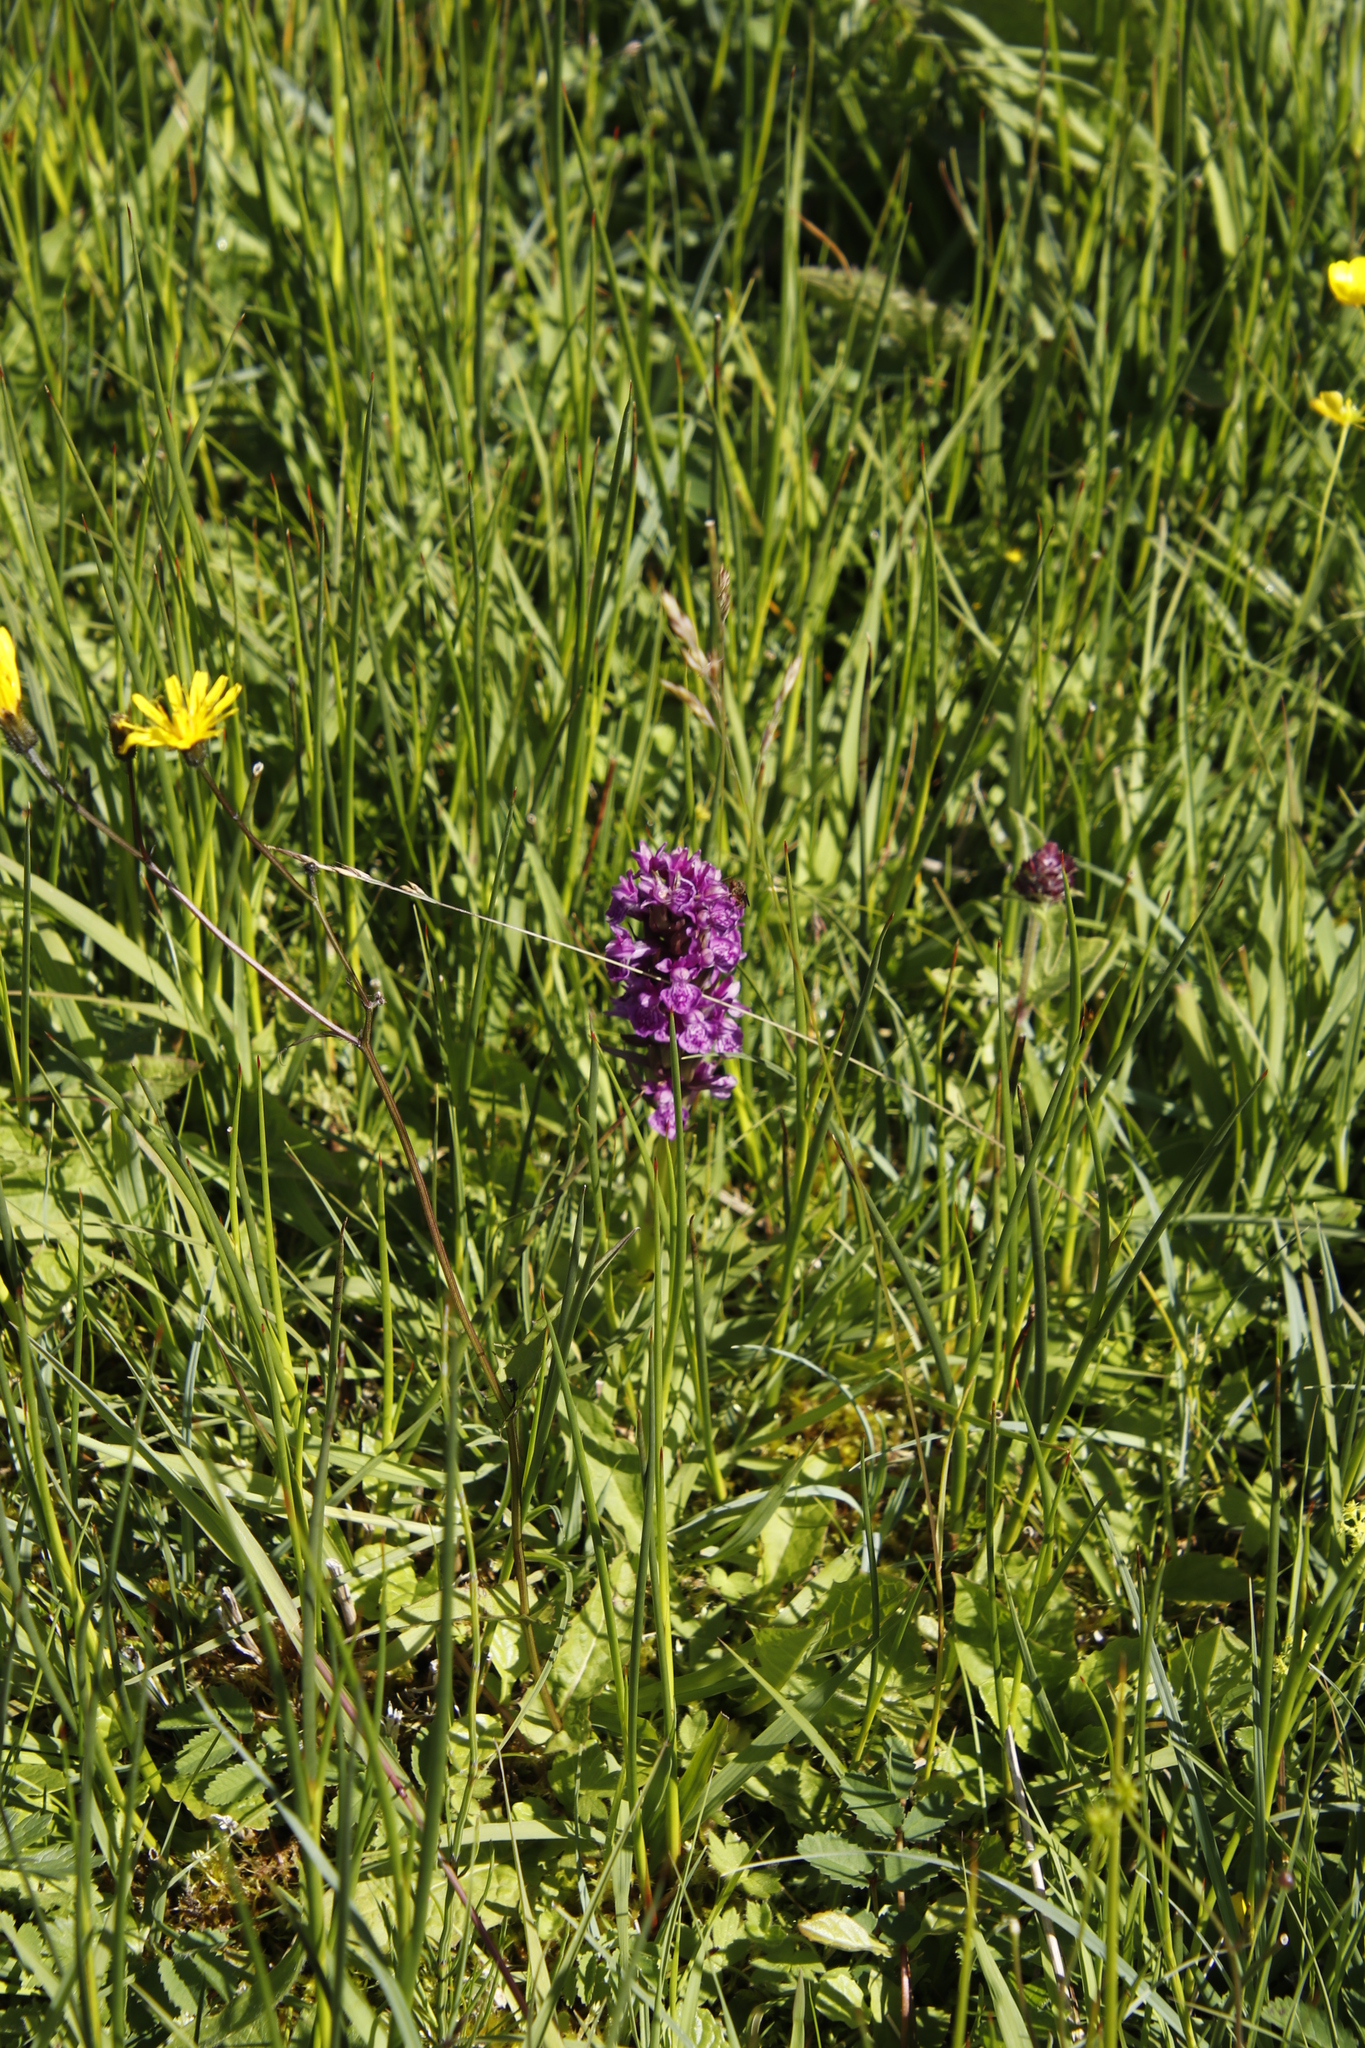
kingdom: Plantae
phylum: Tracheophyta
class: Liliopsida
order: Asparagales
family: Orchidaceae
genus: Dactylorhiza
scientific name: Dactylorhiza majalis
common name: Marsh orchid
